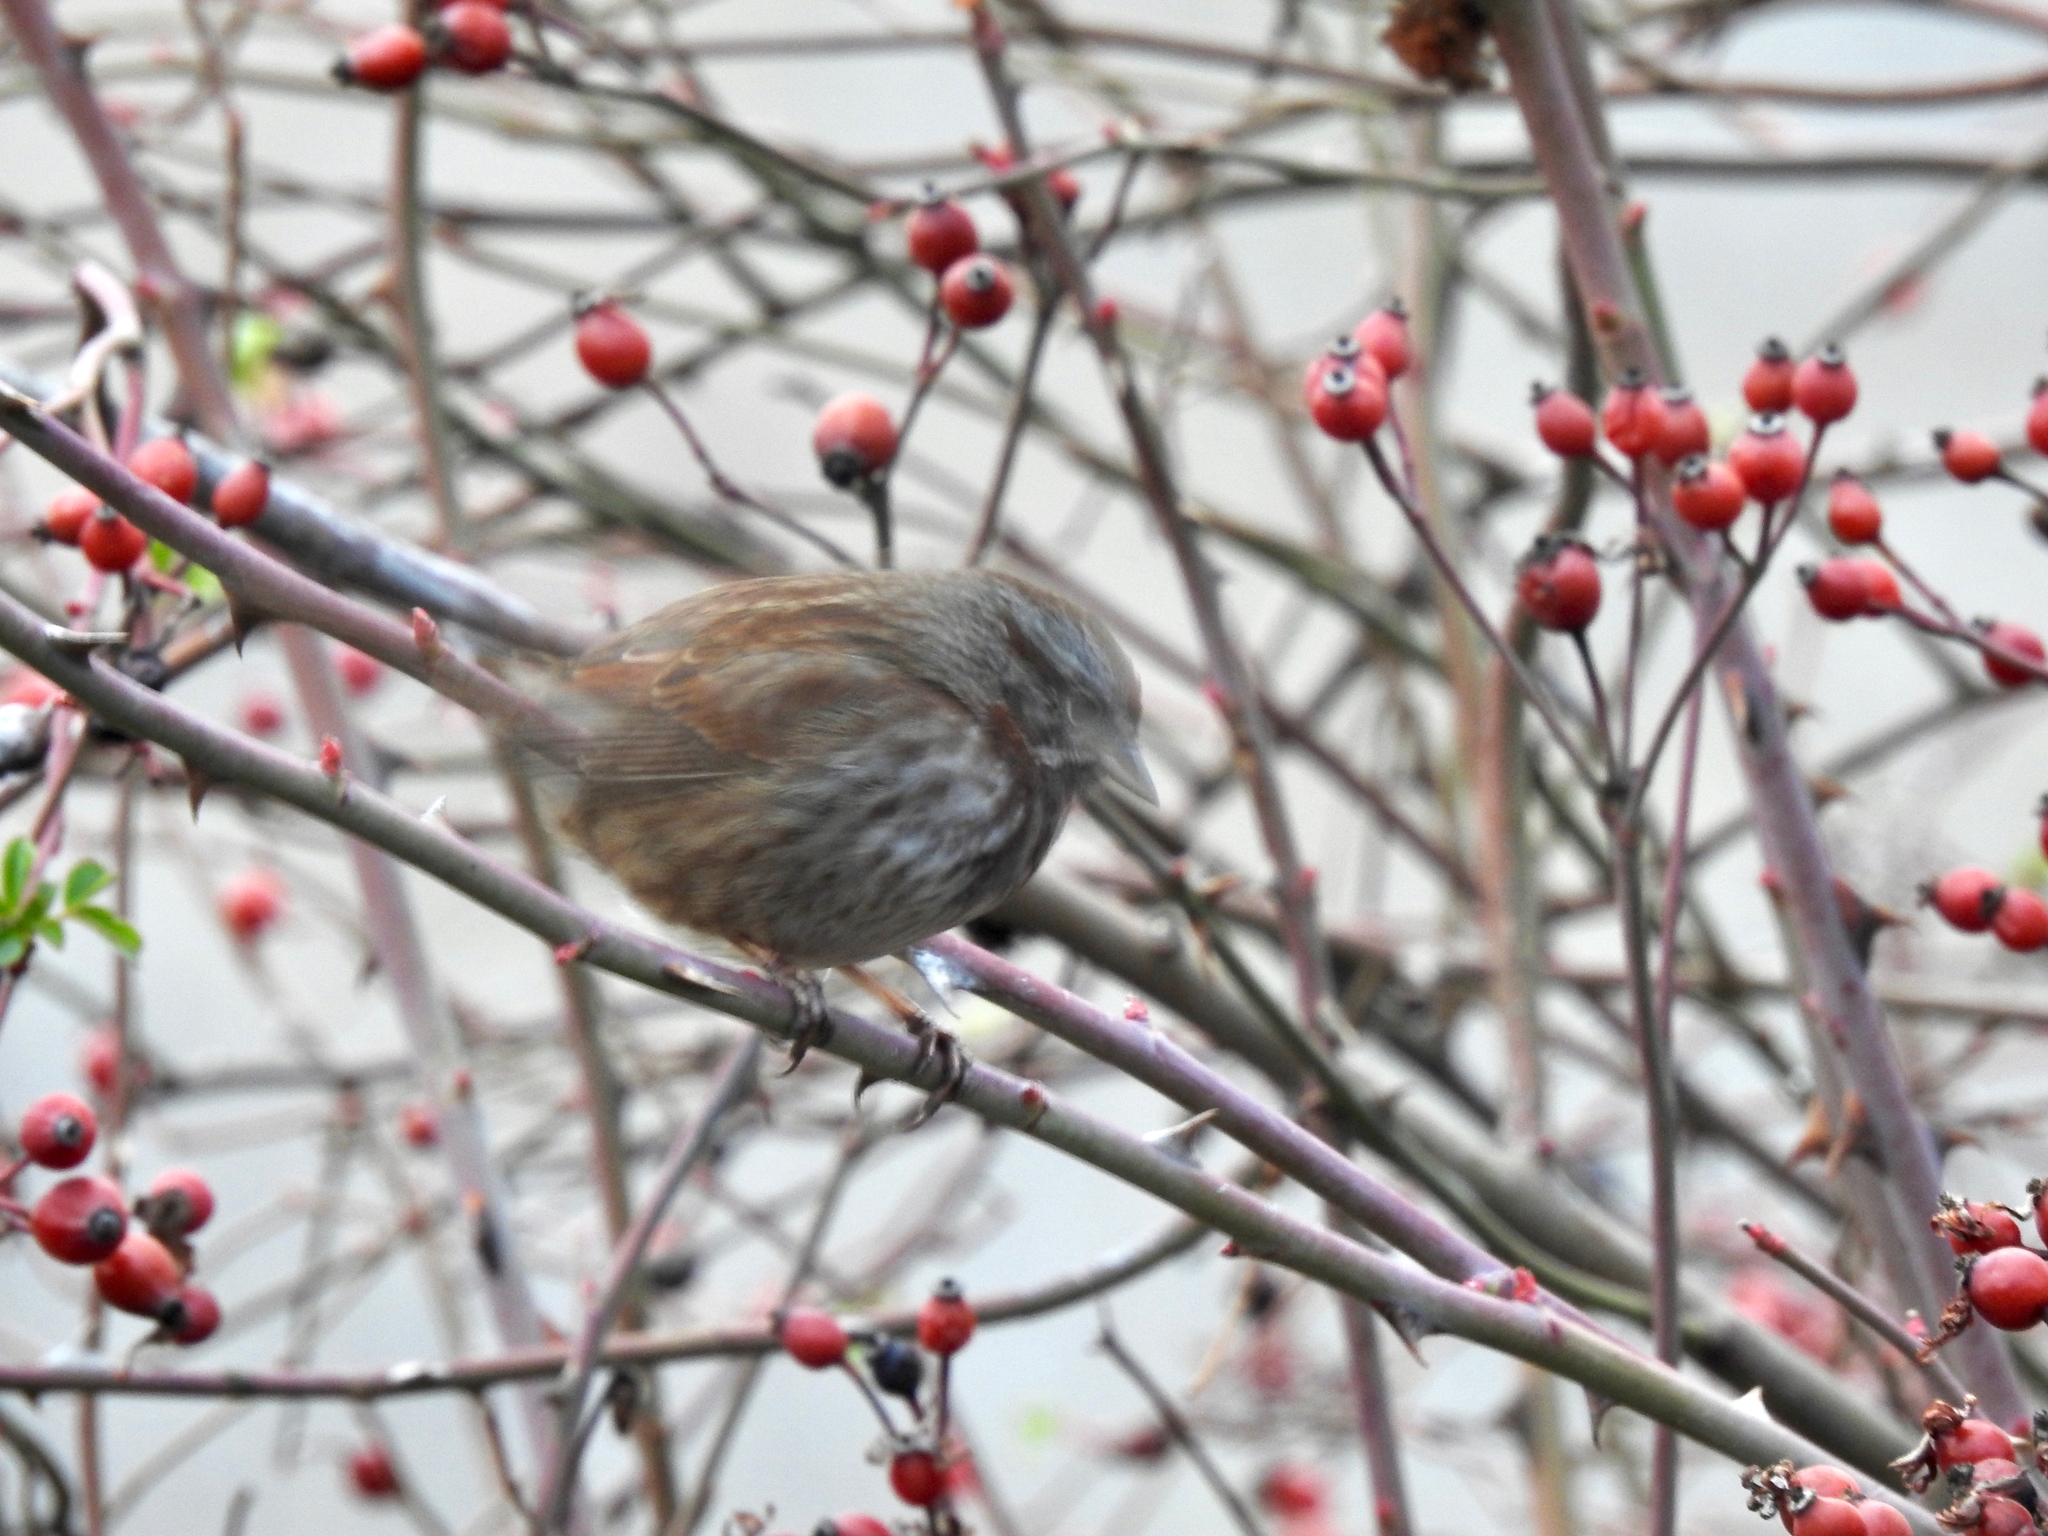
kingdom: Animalia
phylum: Chordata
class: Aves
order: Passeriformes
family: Passerellidae
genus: Melospiza
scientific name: Melospiza melodia
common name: Song sparrow
